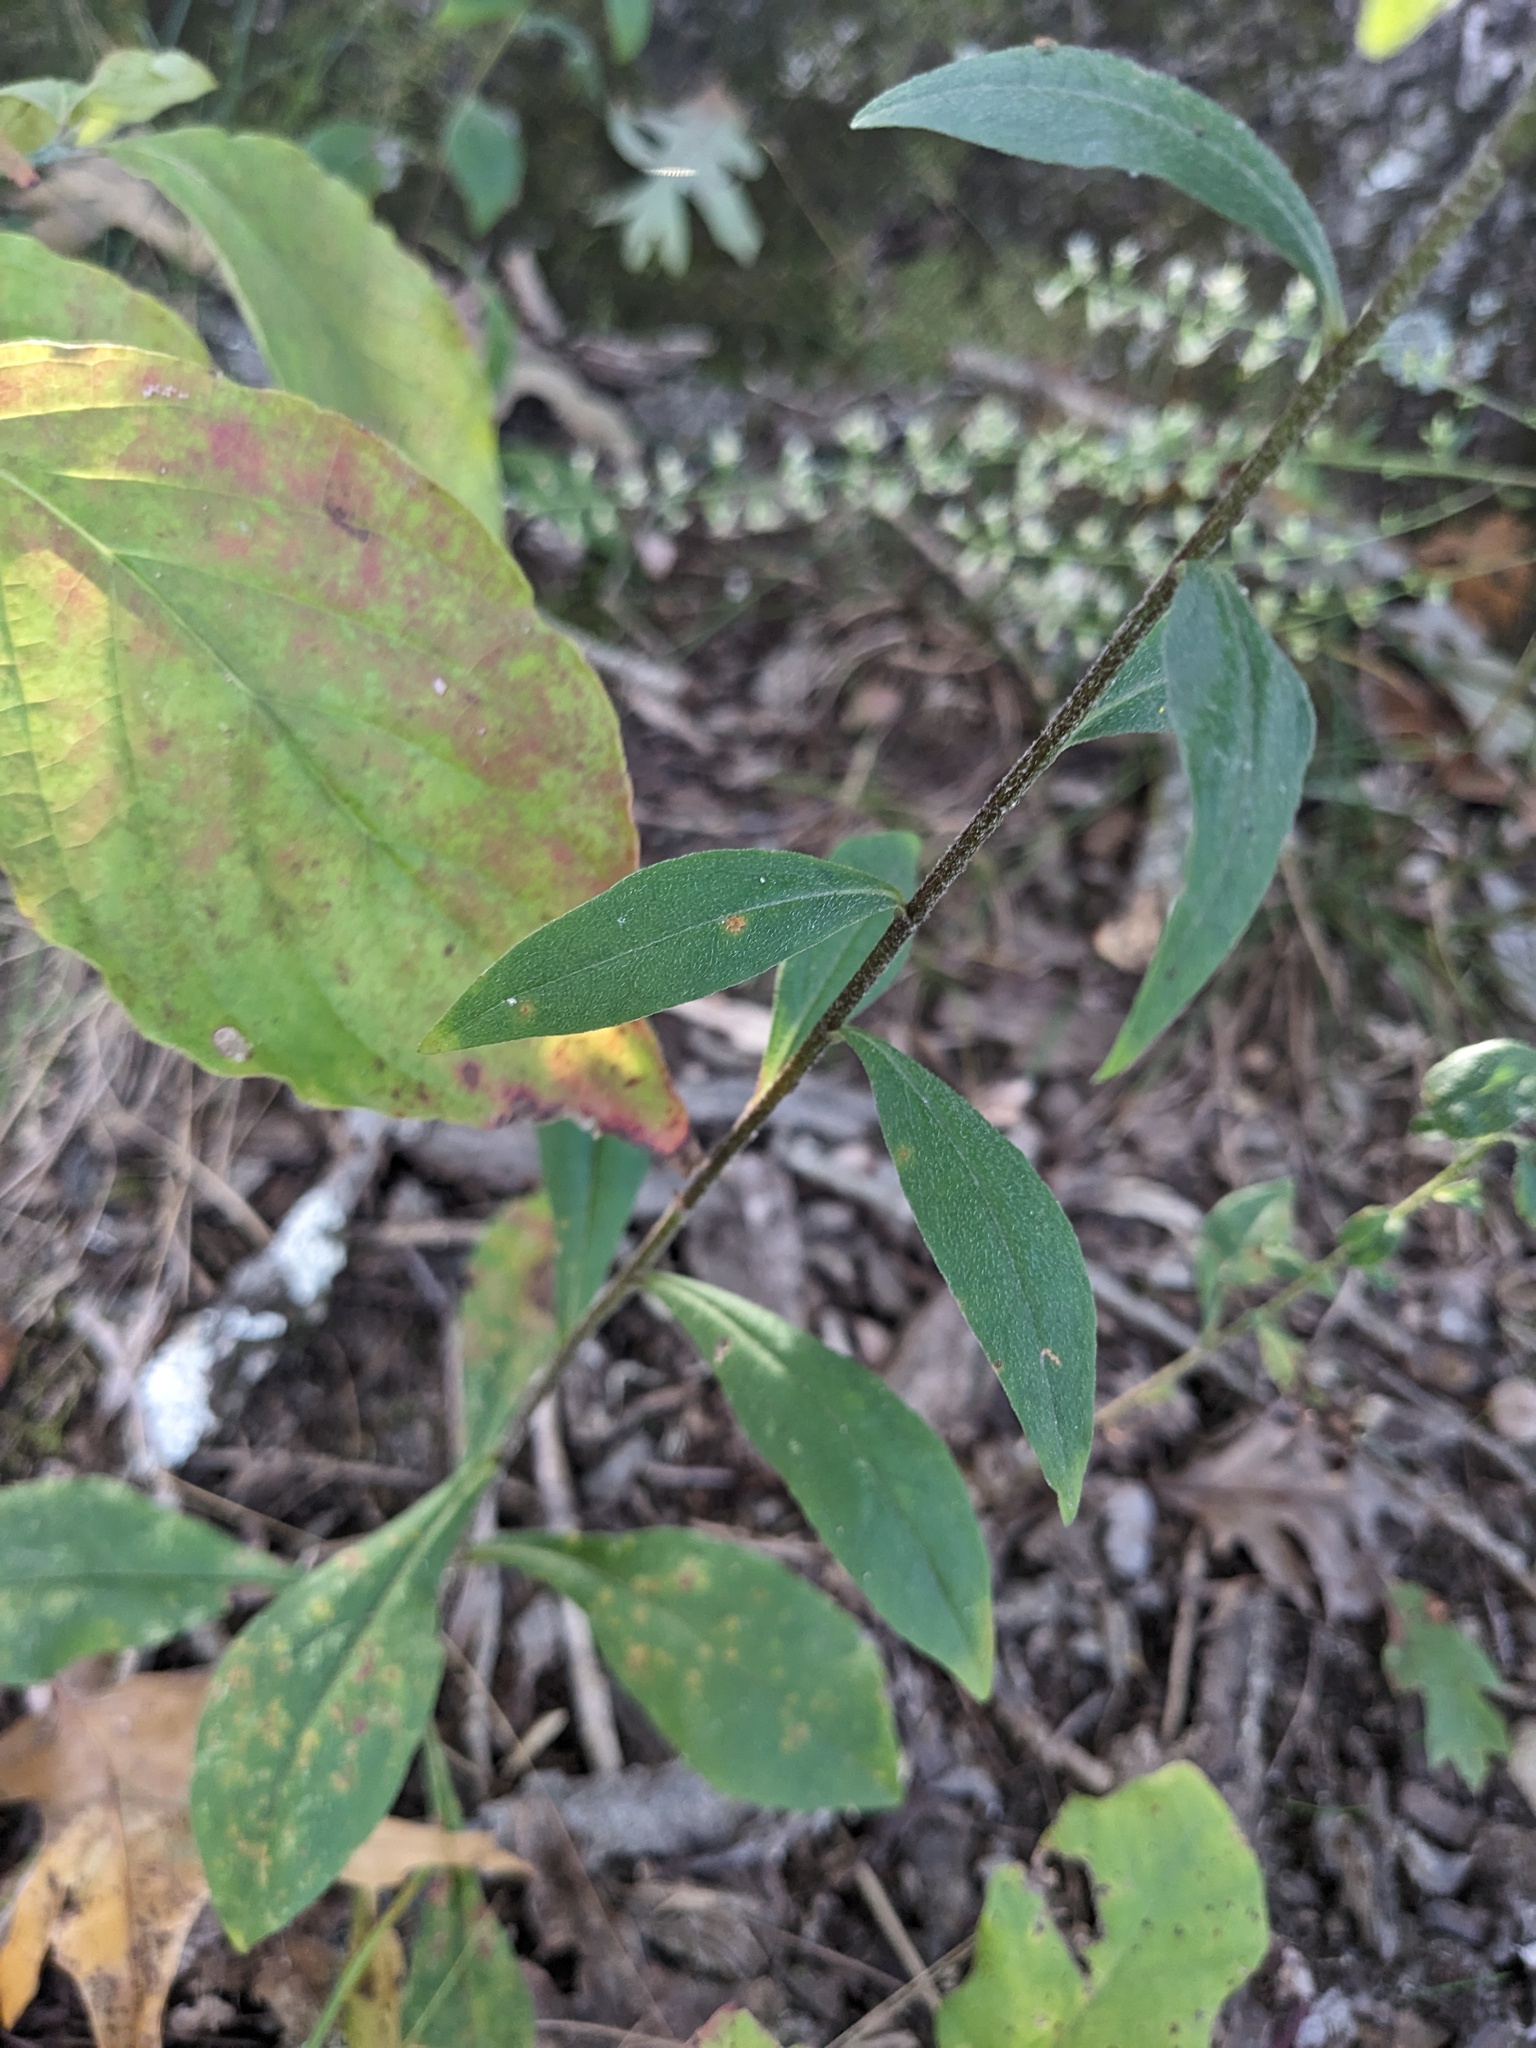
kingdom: Plantae
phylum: Tracheophyta
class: Magnoliopsida
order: Asterales
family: Asteraceae
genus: Solidago
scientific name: Solidago bicolor
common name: Silverrod
